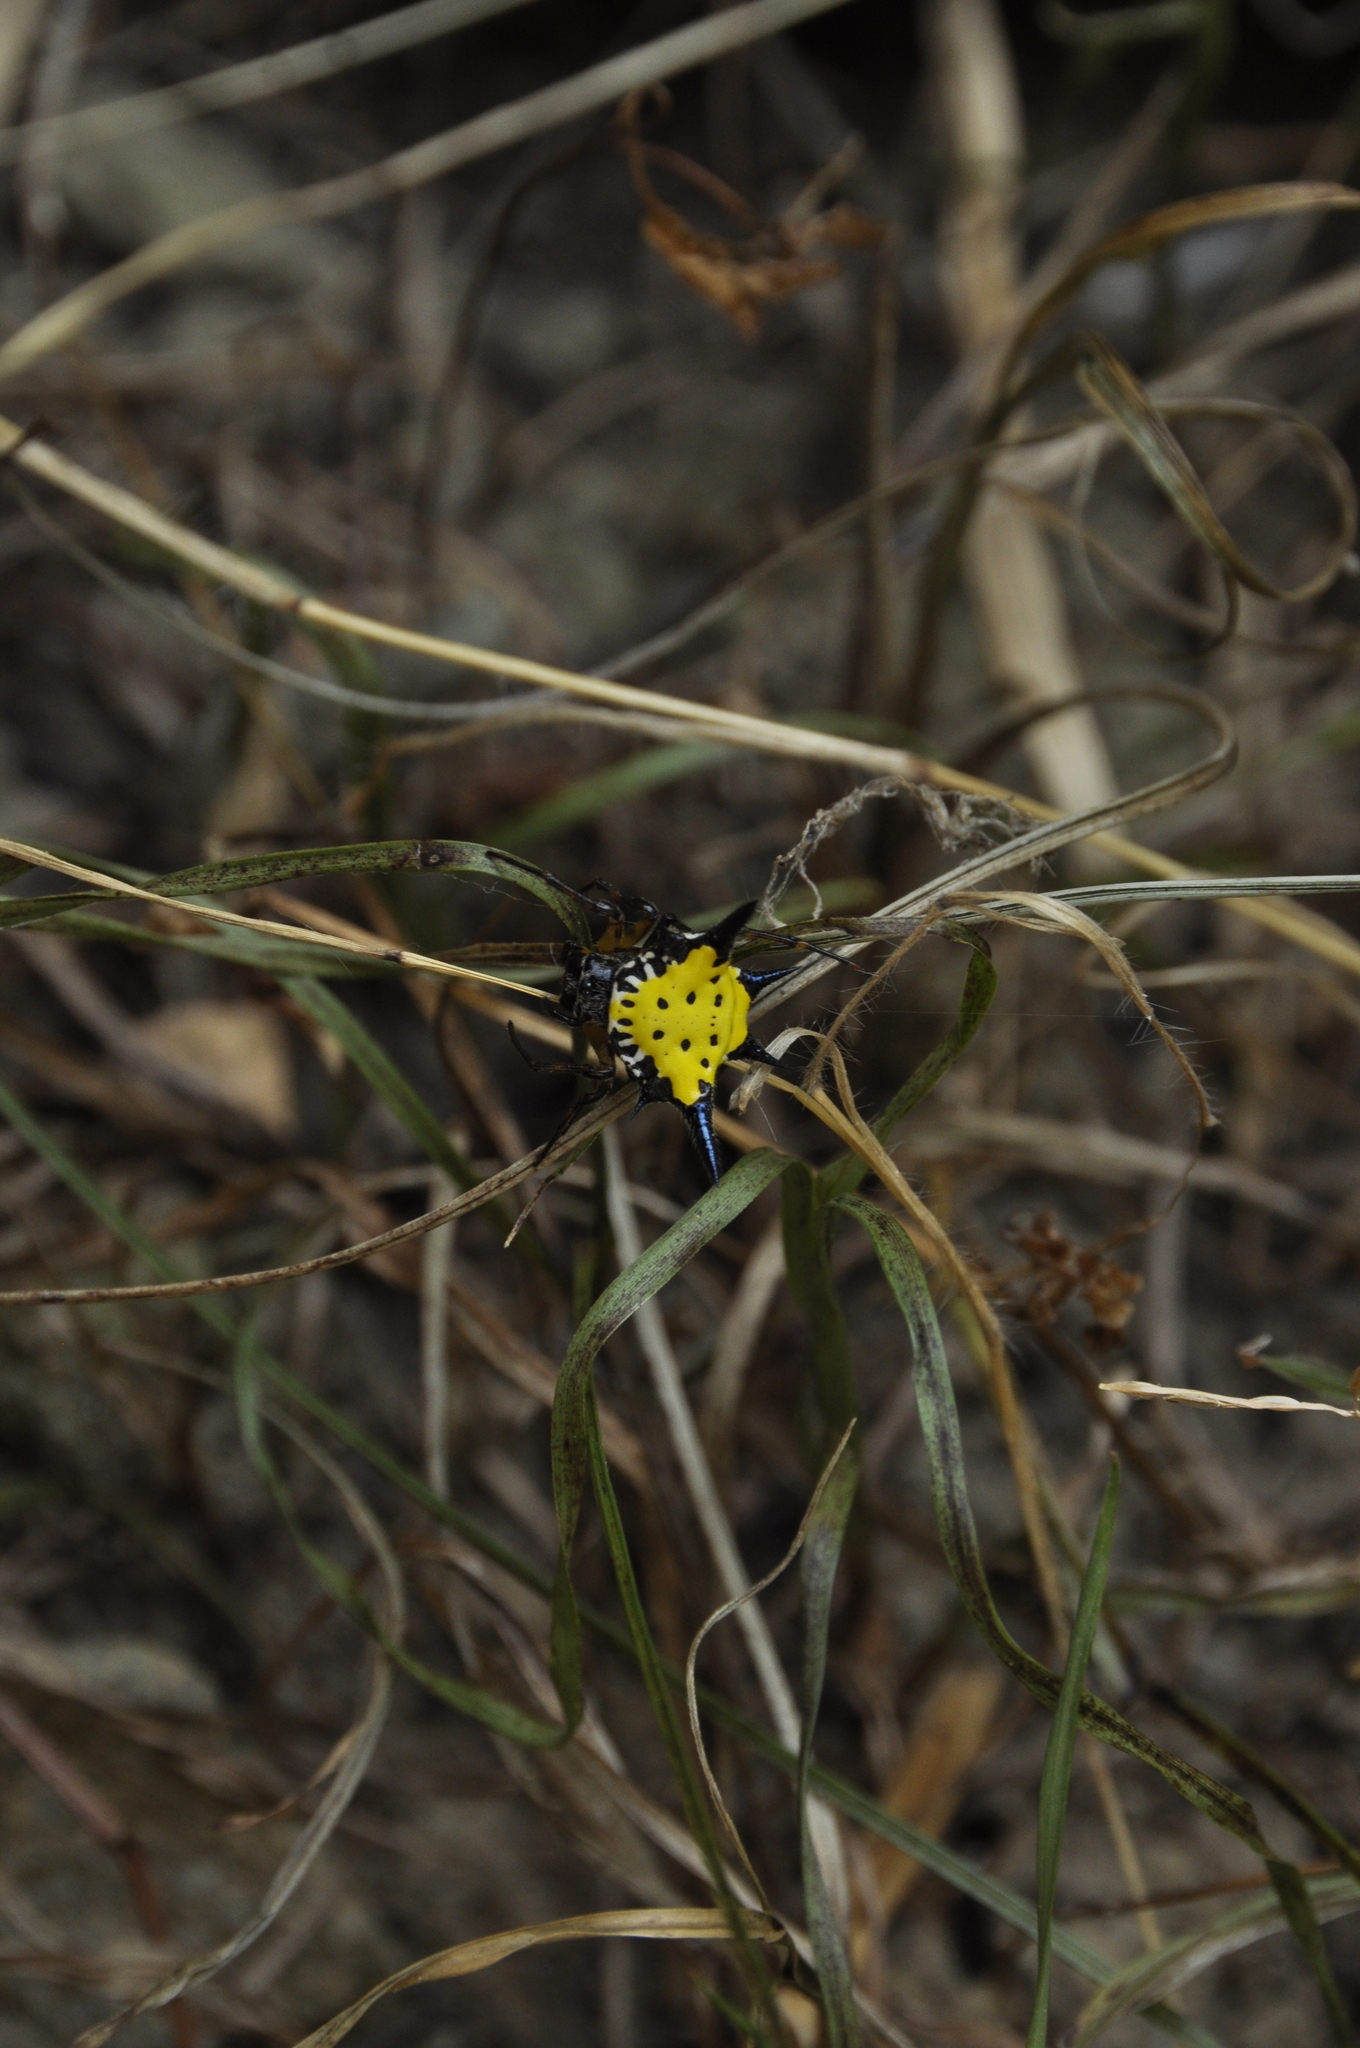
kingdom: Animalia
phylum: Arthropoda
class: Arachnida
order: Araneae
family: Araneidae
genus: Macracantha
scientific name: Macracantha hasselti
